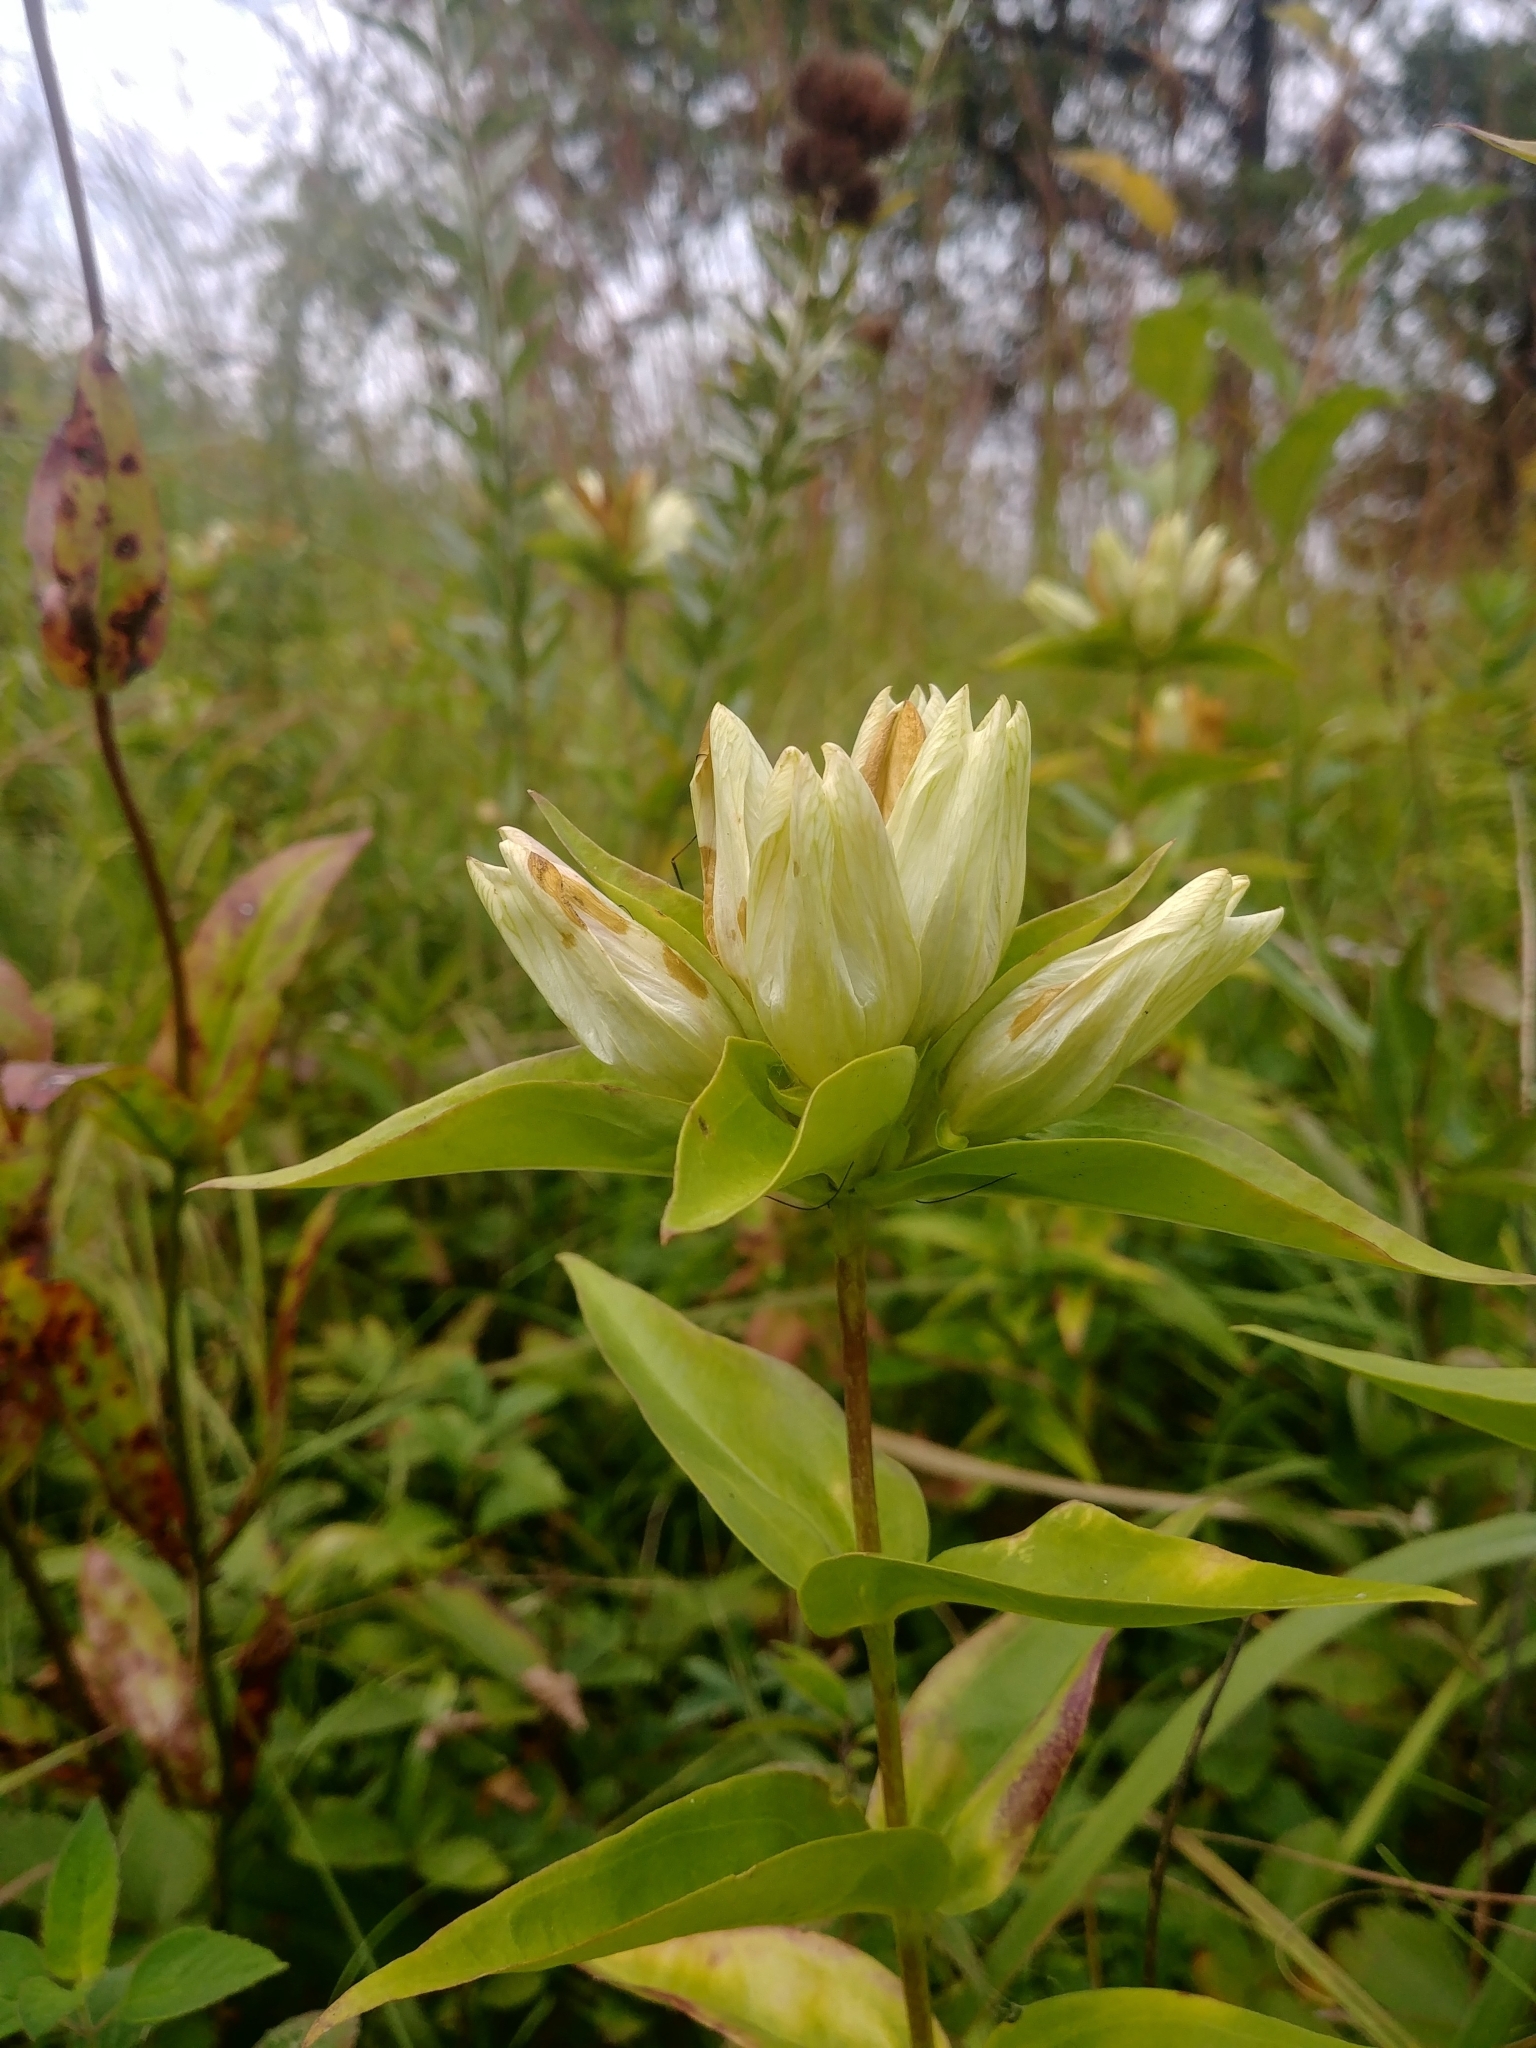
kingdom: Plantae
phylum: Tracheophyta
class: Magnoliopsida
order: Gentianales
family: Gentianaceae
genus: Gentiana
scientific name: Gentiana alba
